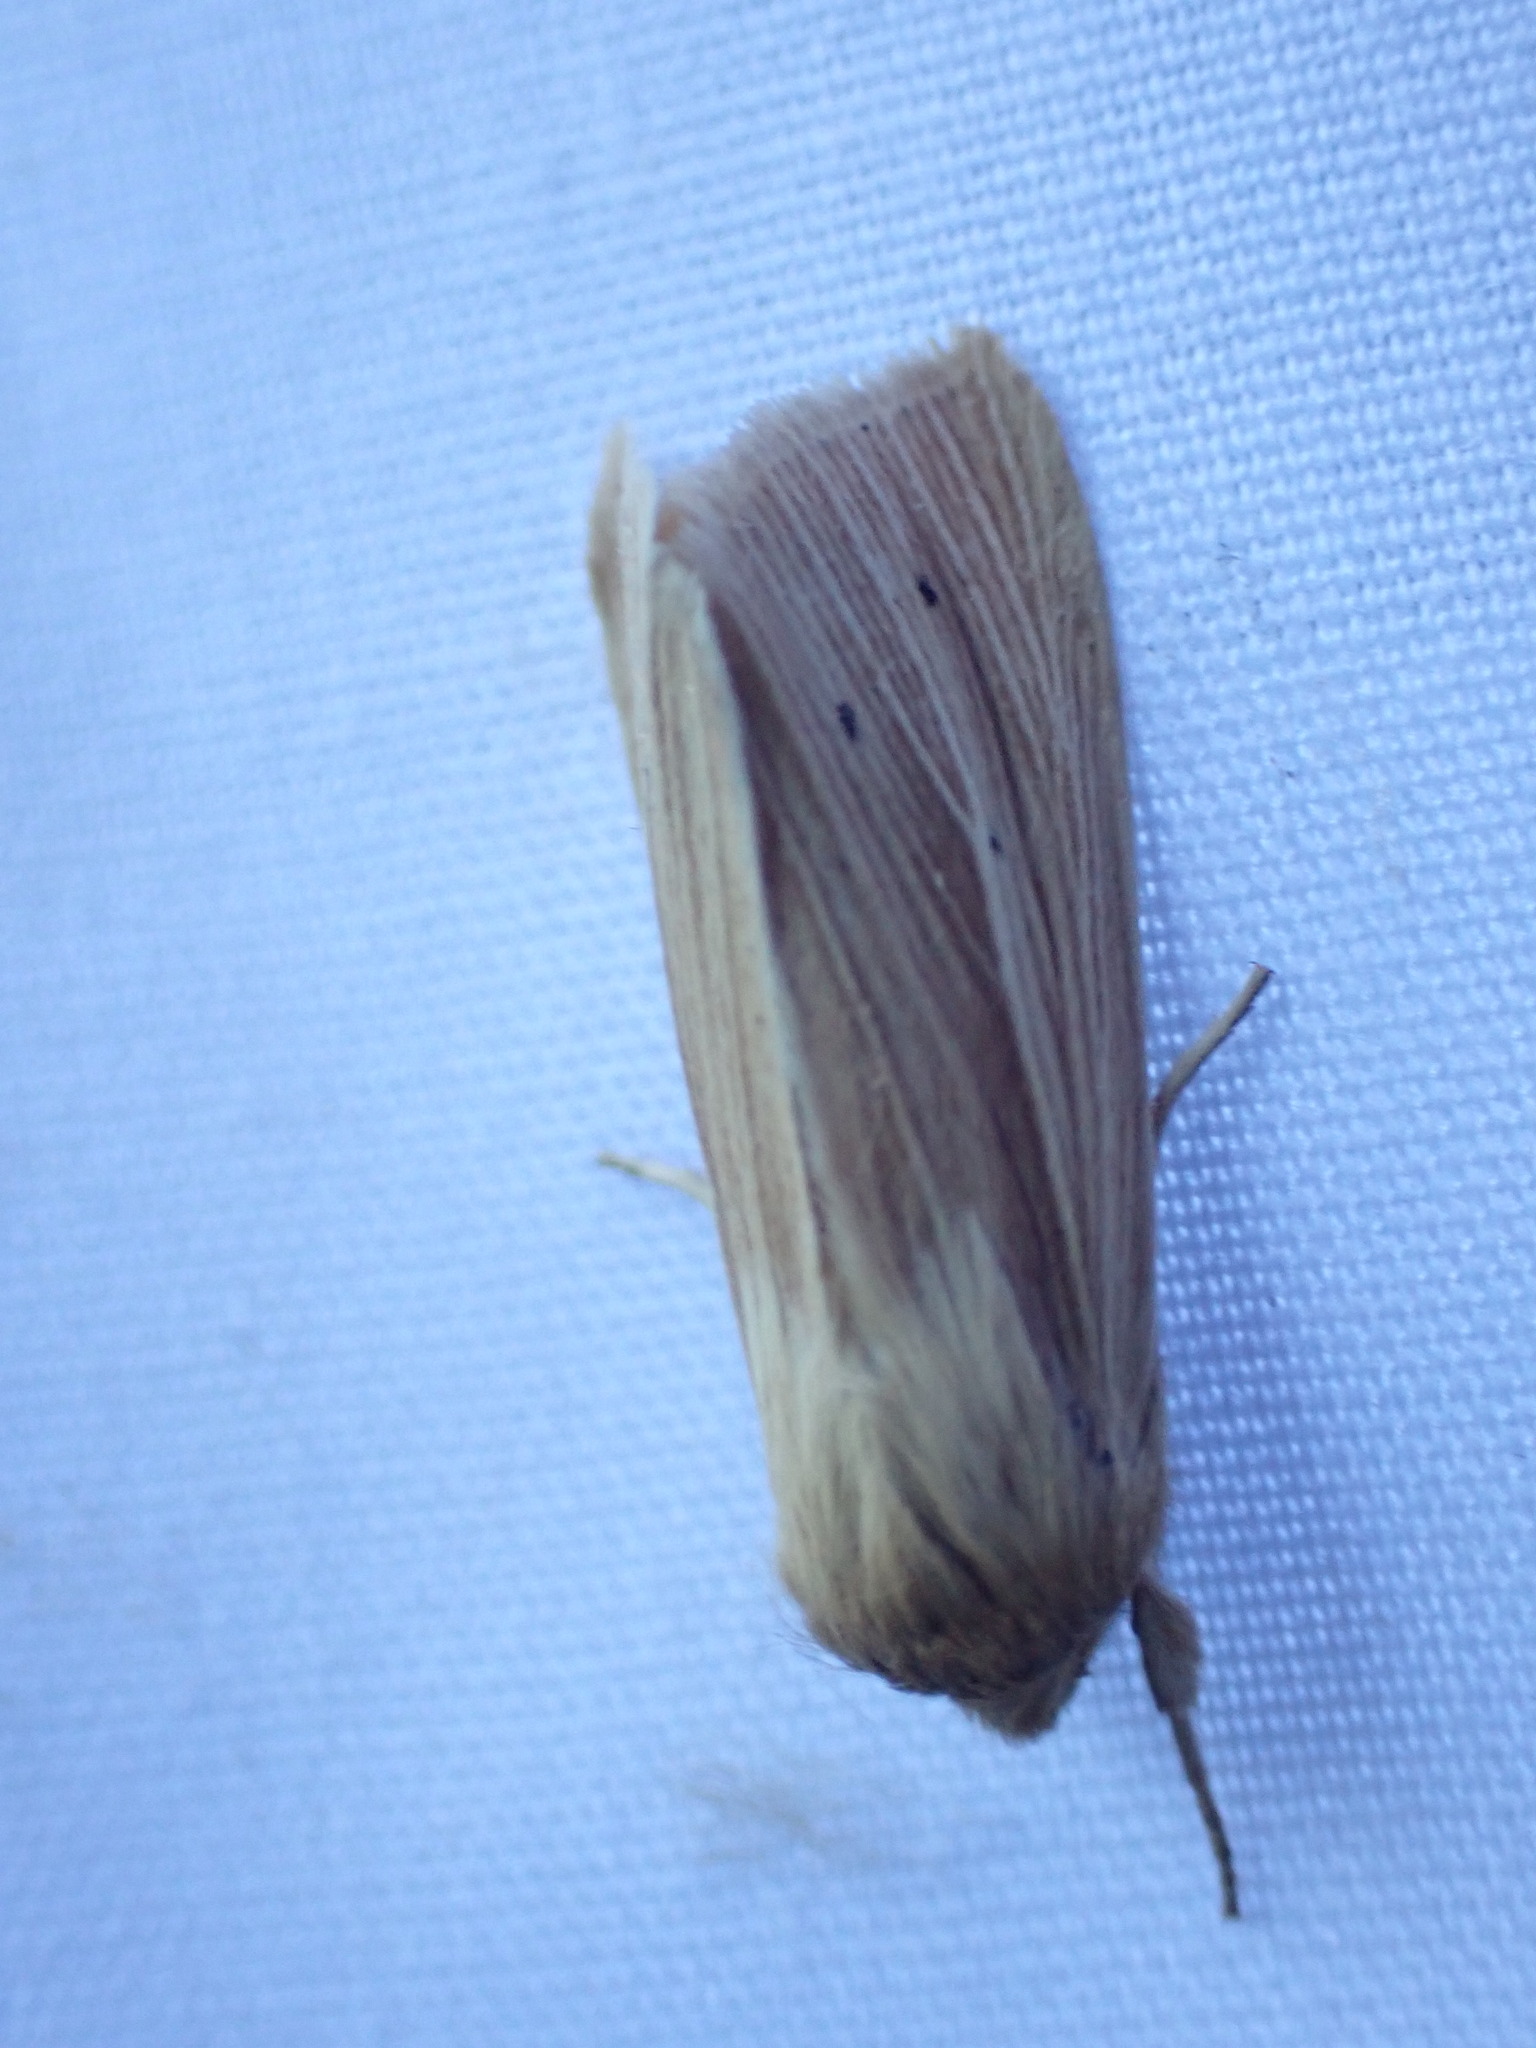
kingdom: Animalia
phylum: Arthropoda
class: Insecta
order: Lepidoptera
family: Noctuidae
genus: Mythimna
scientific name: Mythimna oxygala
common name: Lesser wainscot
